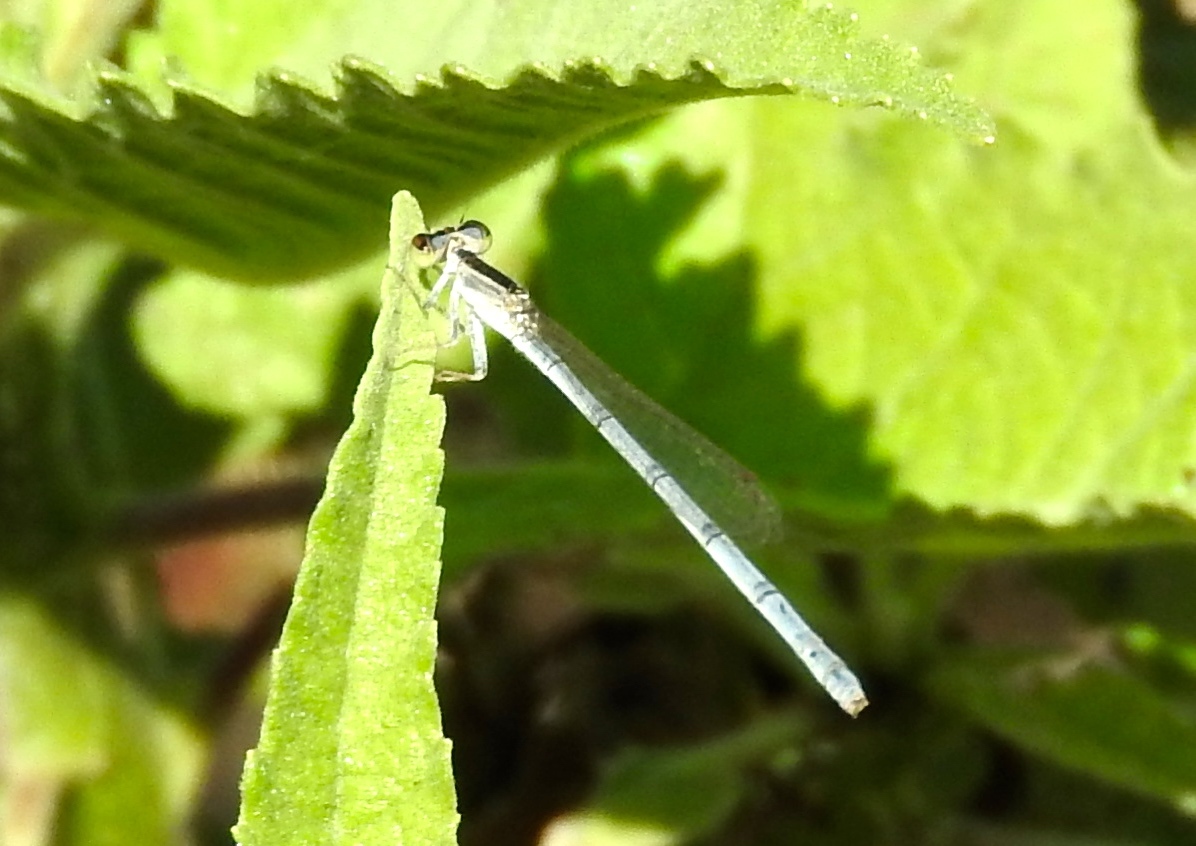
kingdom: Animalia
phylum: Arthropoda
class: Insecta
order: Odonata
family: Coenagrionidae
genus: Ischnura
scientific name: Ischnura hastata
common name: Citrine forktail
